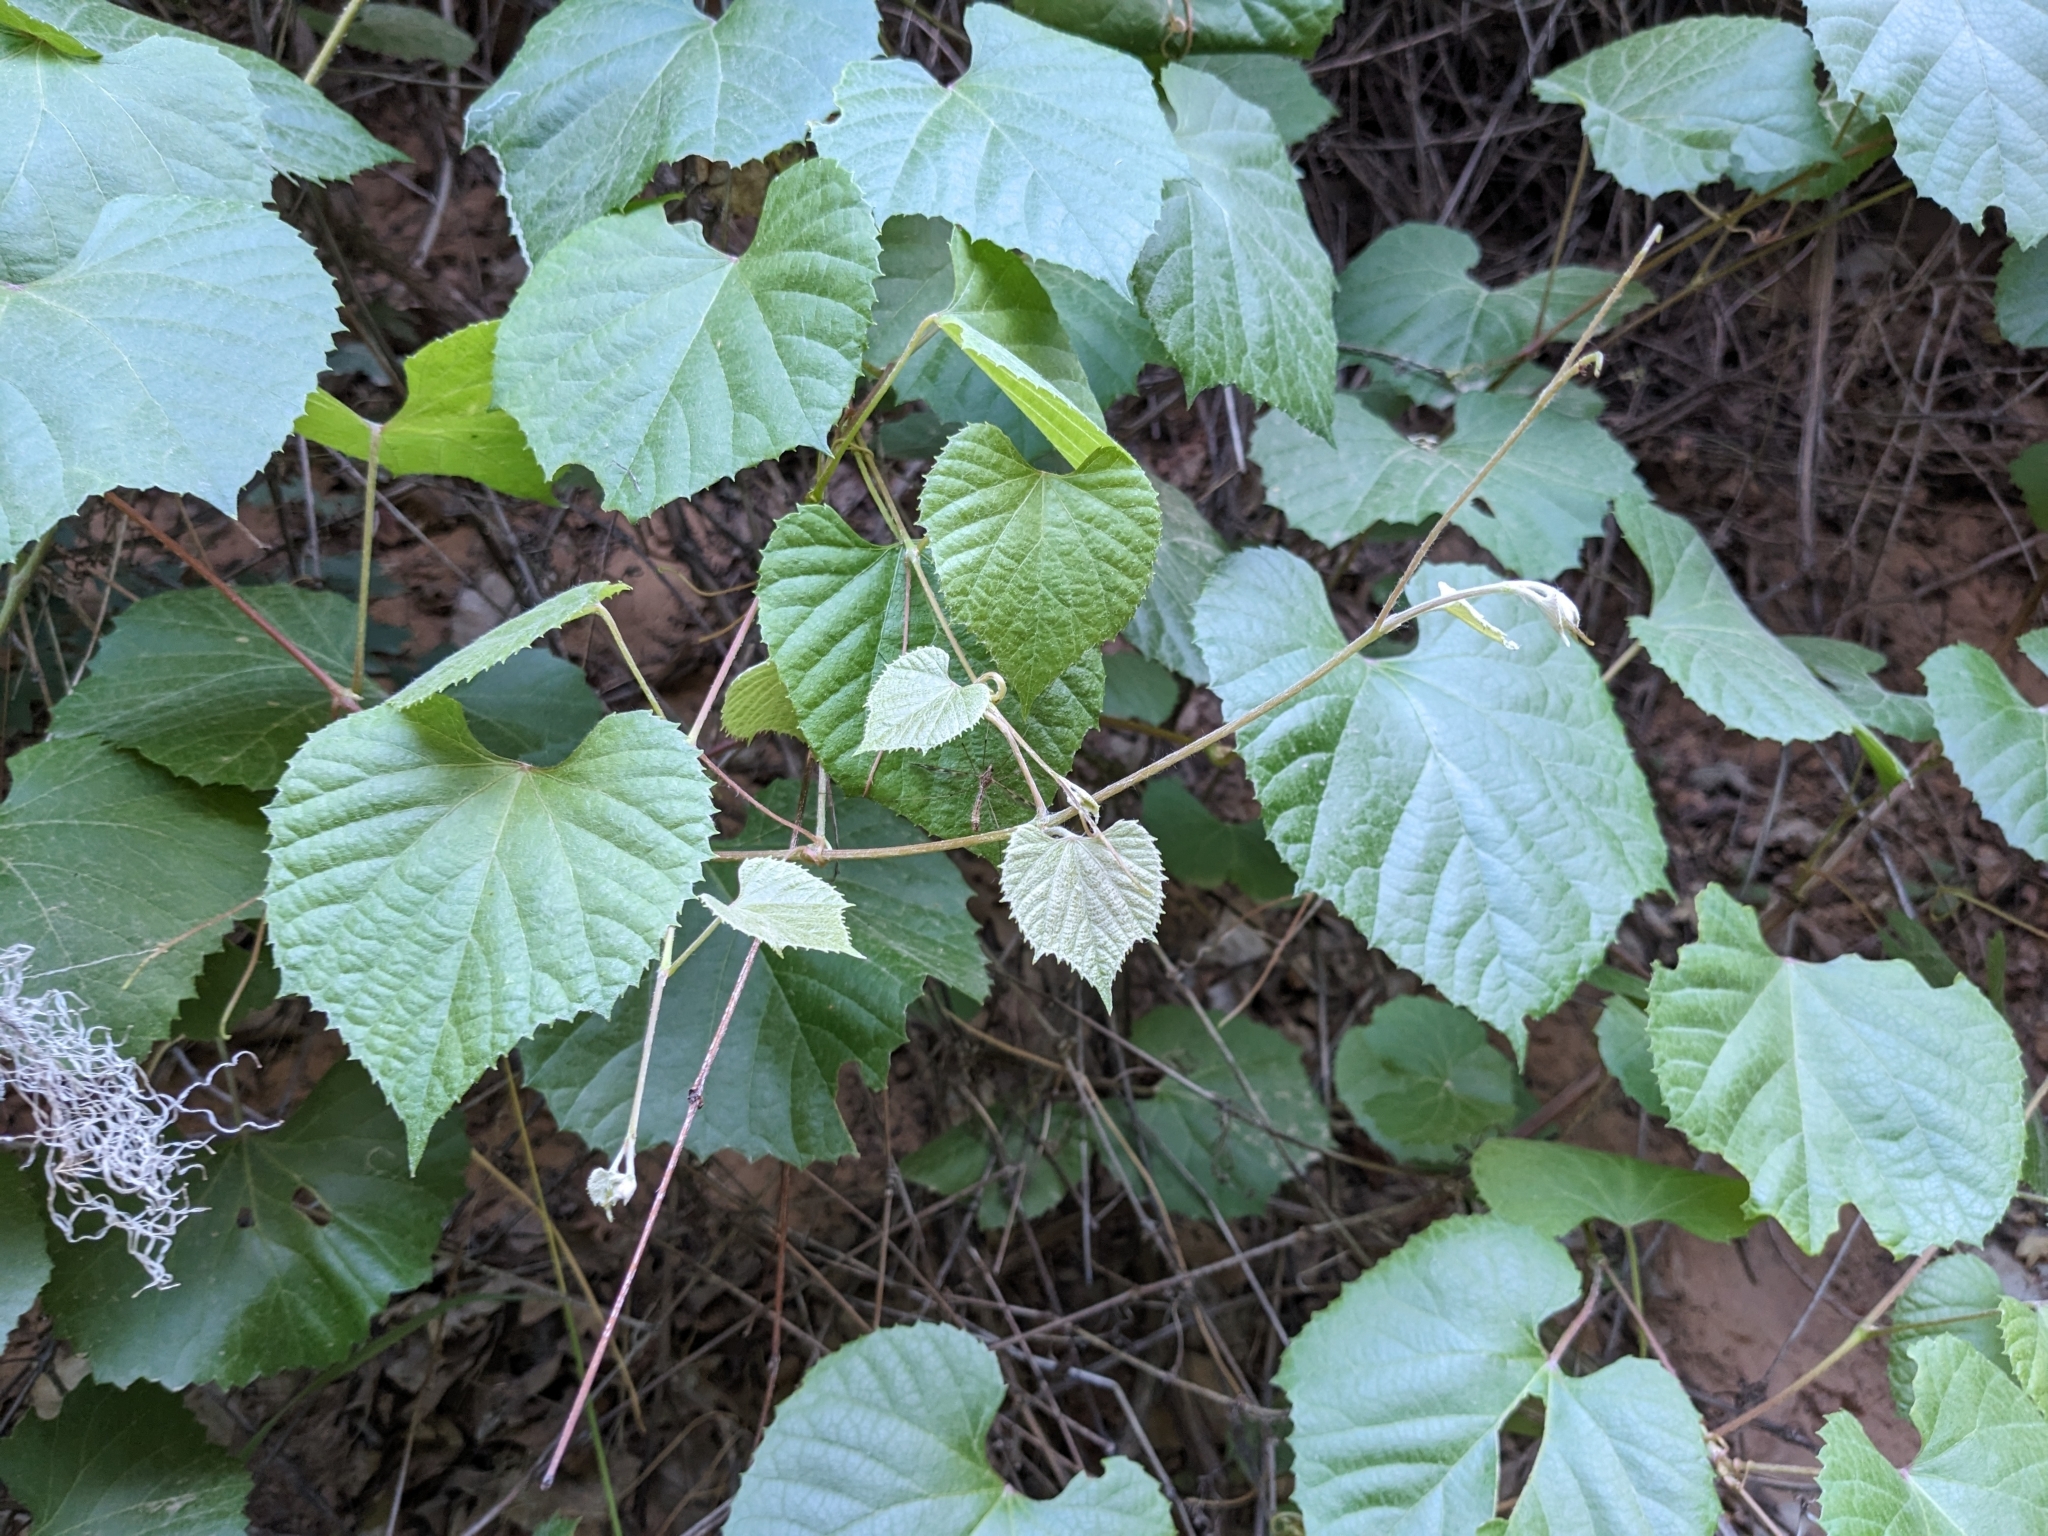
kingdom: Plantae
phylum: Tracheophyta
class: Magnoliopsida
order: Vitales
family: Vitaceae
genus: Vitis
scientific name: Vitis arizonica
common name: Canyon grape
